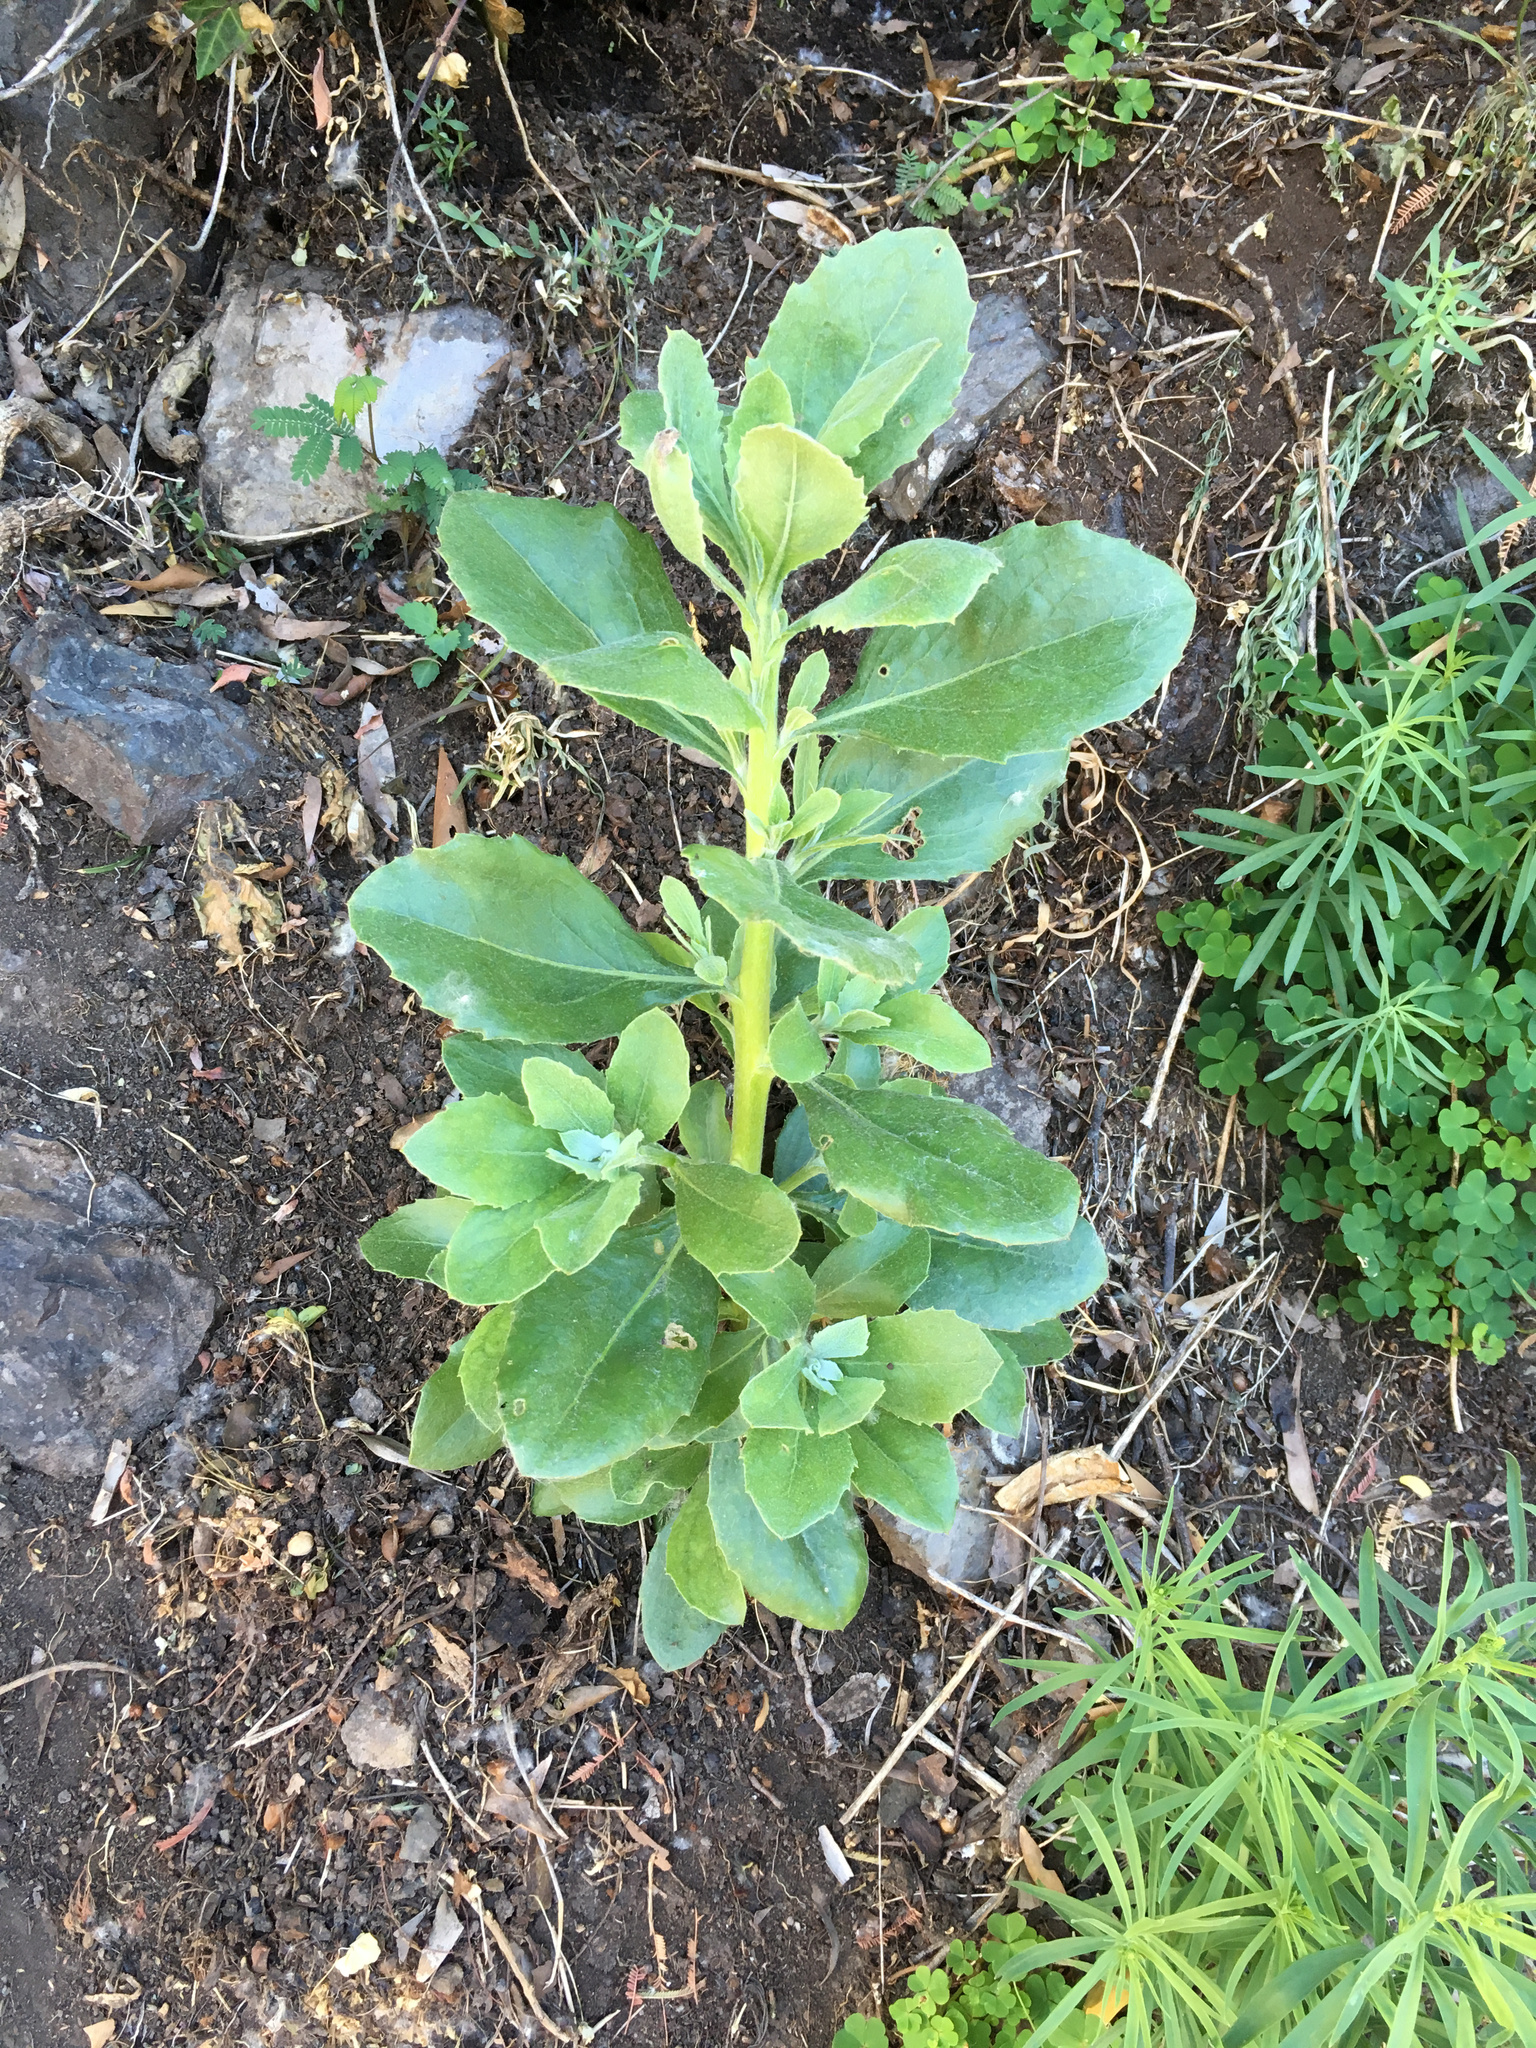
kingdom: Plantae
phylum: Tracheophyta
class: Magnoliopsida
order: Asterales
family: Asteraceae
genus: Osteospermum
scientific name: Osteospermum moniliferum
